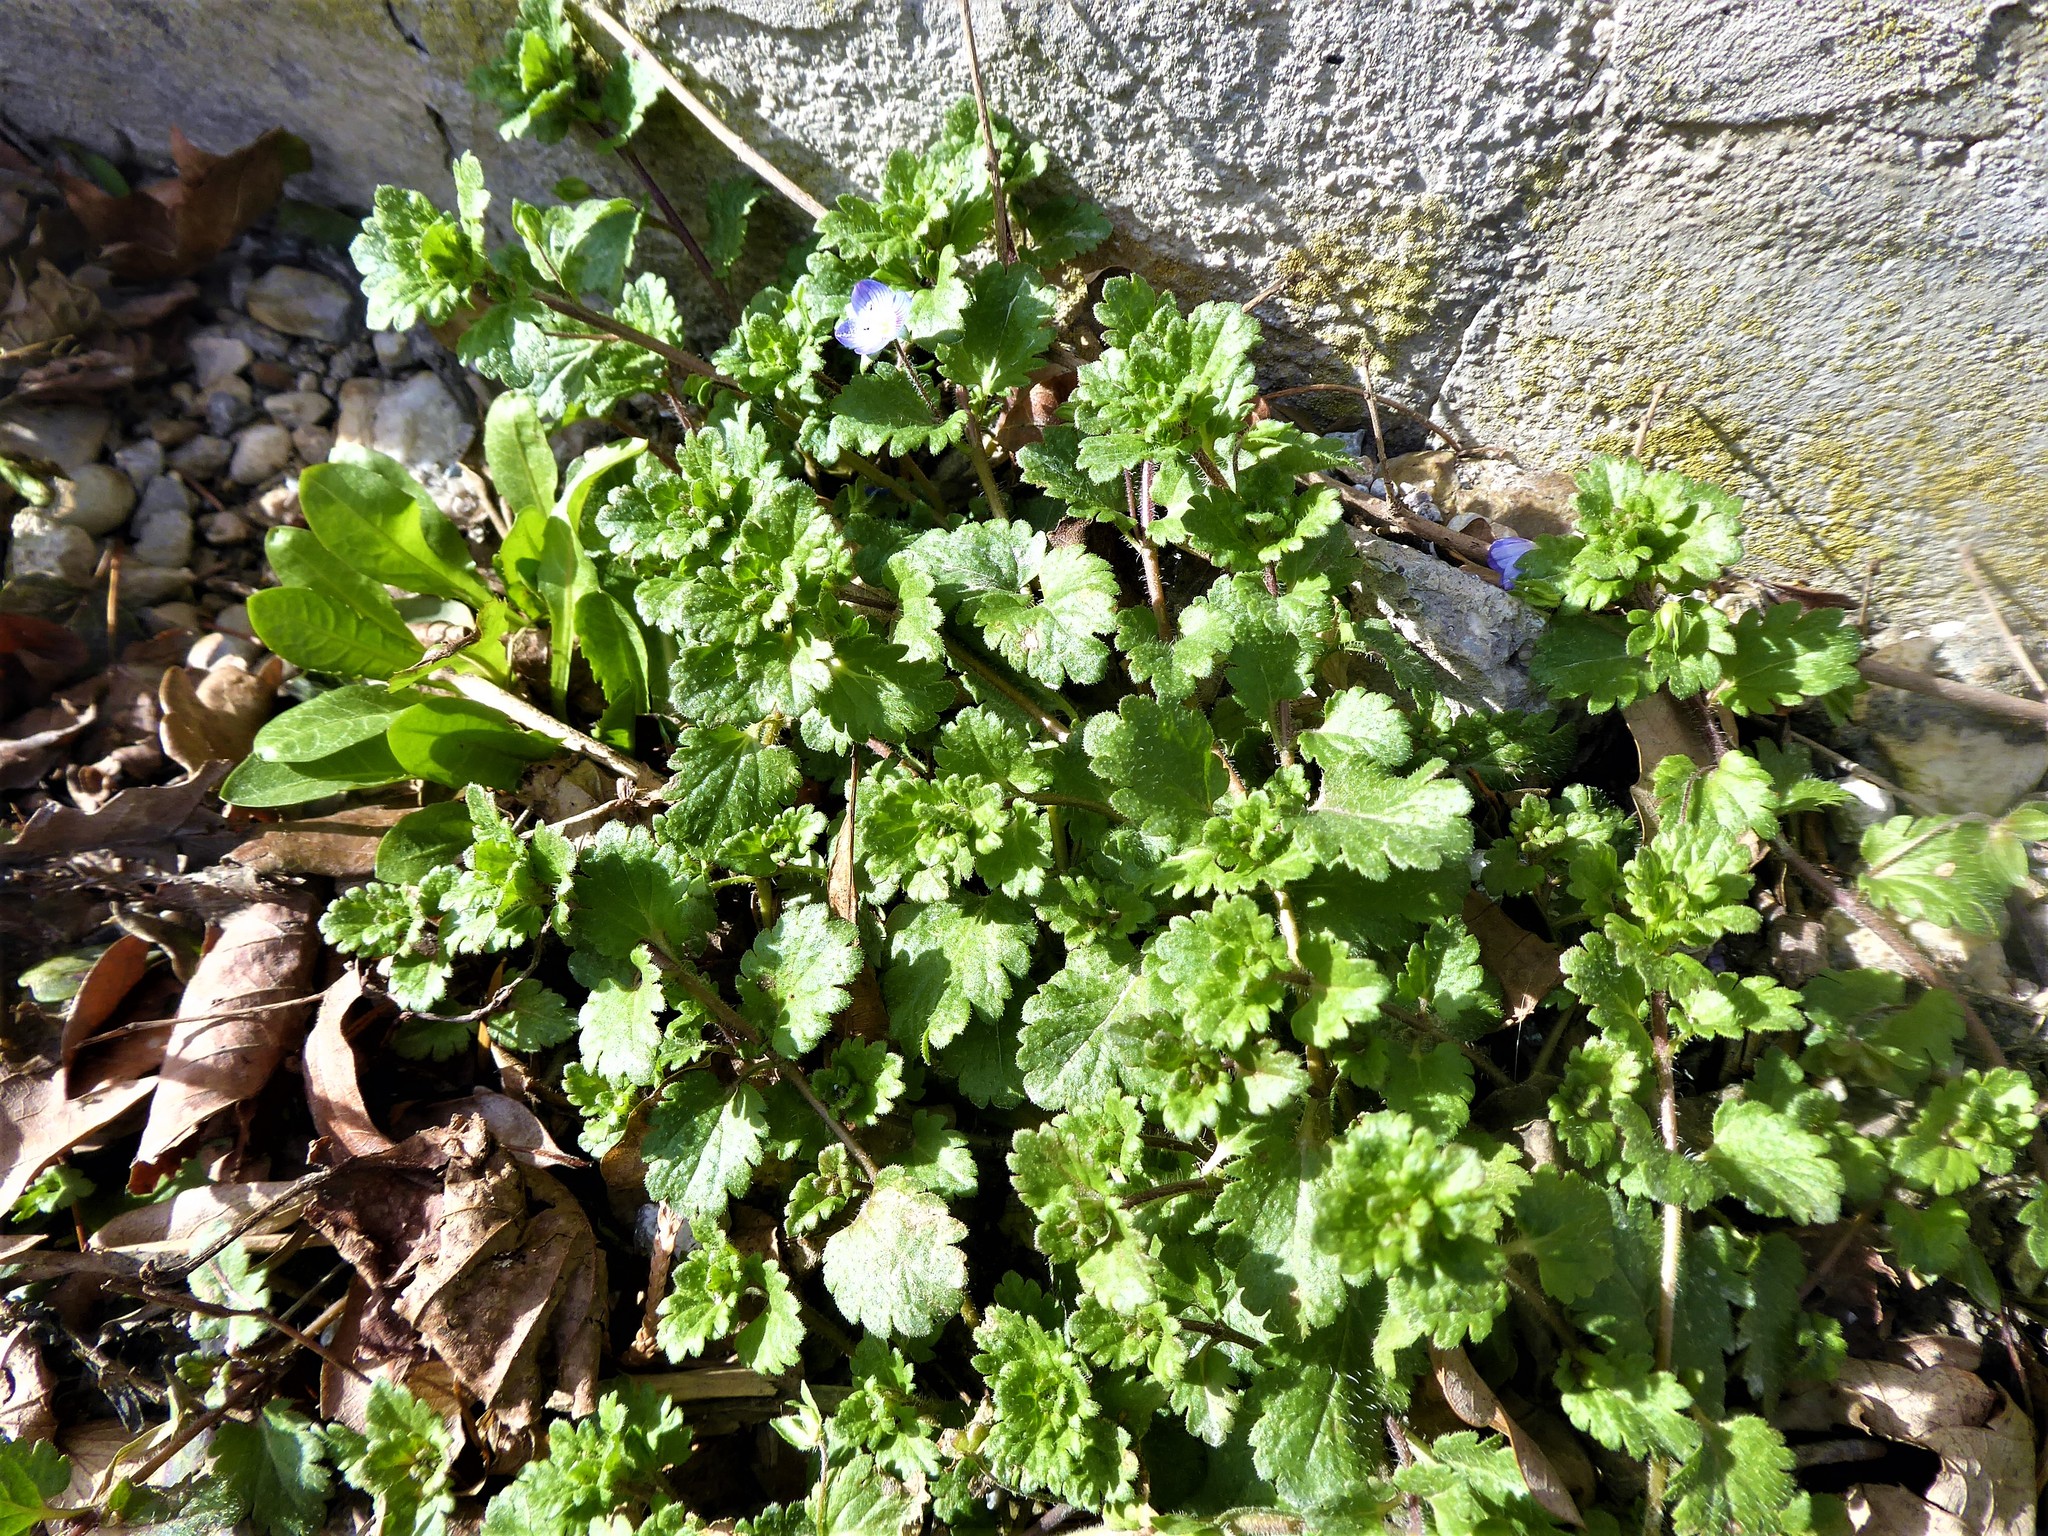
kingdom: Plantae
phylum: Tracheophyta
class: Magnoliopsida
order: Lamiales
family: Plantaginaceae
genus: Veronica
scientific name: Veronica persica
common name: Common field-speedwell
